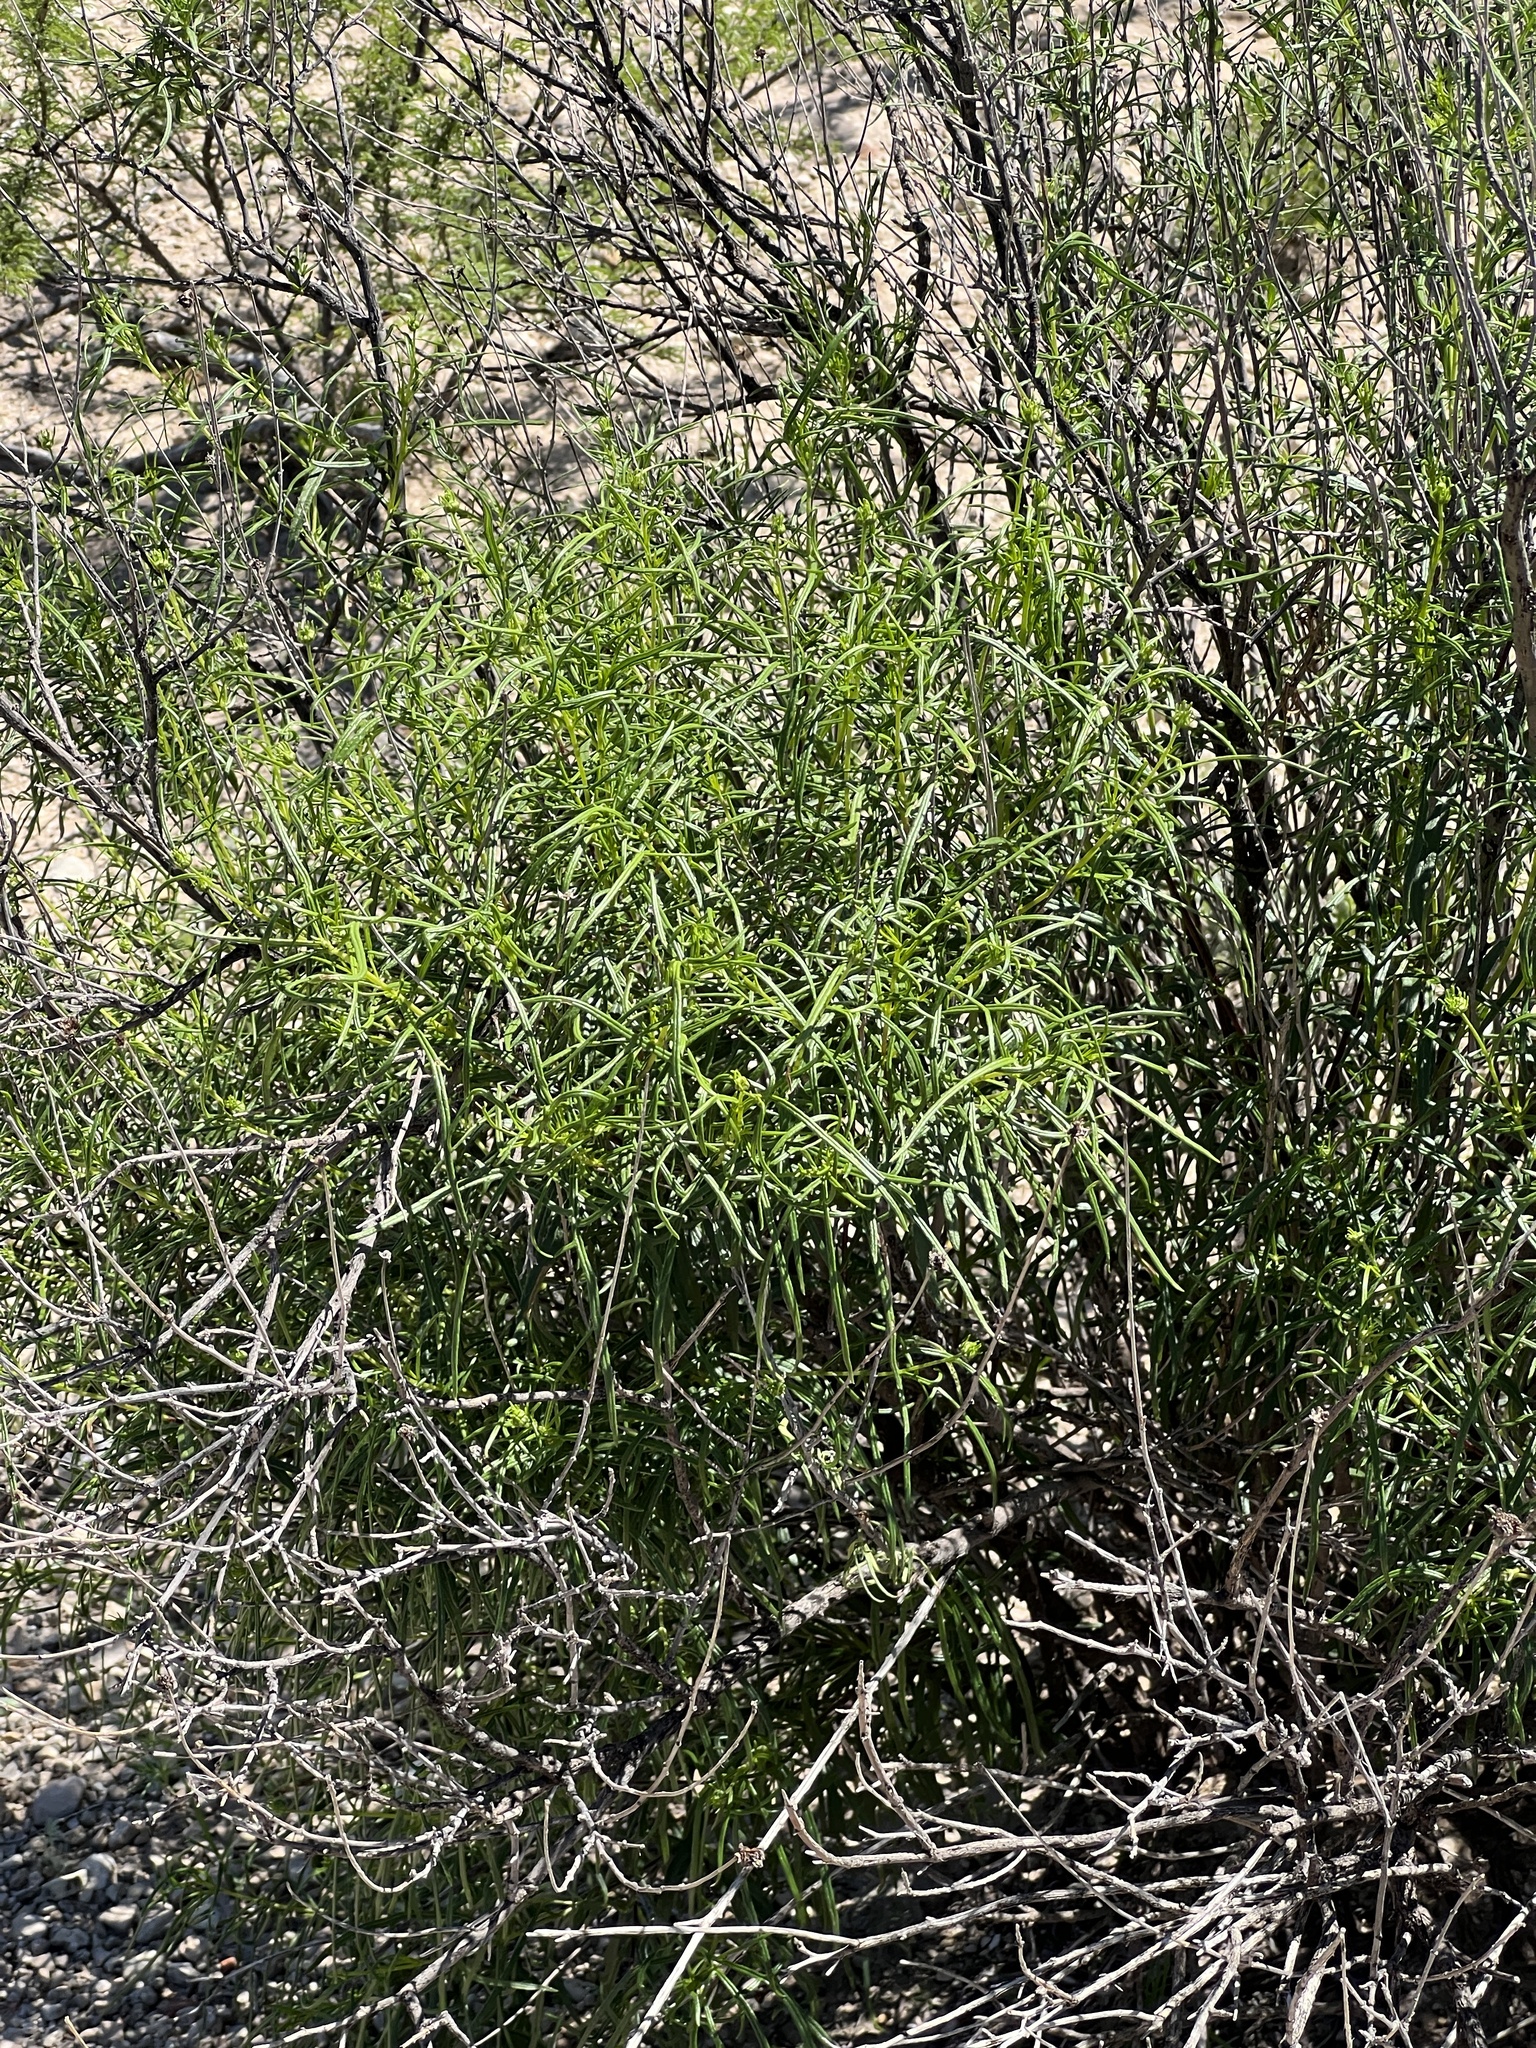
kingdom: Plantae
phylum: Tracheophyta
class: Magnoliopsida
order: Asterales
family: Asteraceae
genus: Sidneya
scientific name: Sidneya tenuifolia
